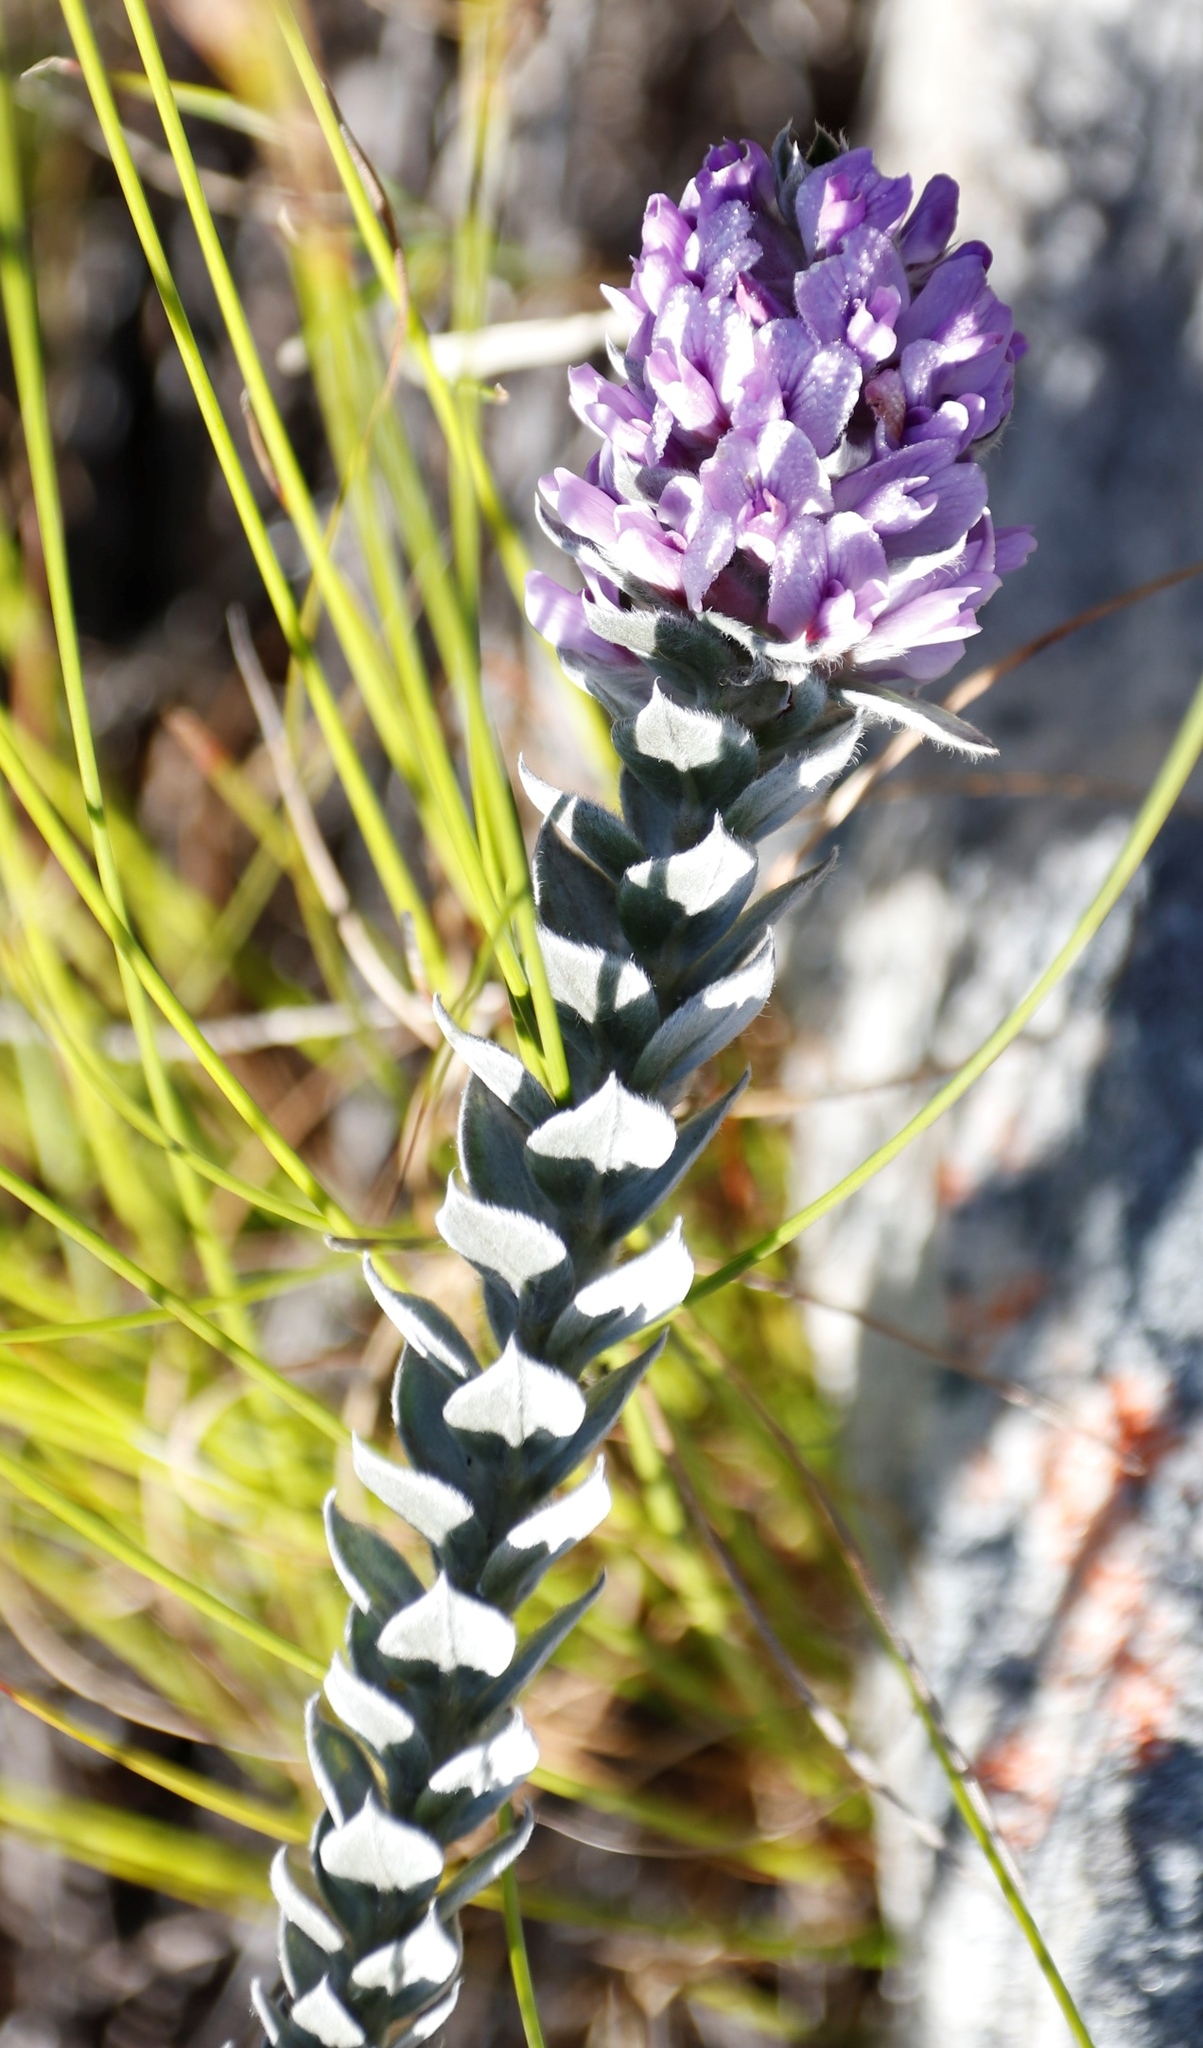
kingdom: Plantae
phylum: Tracheophyta
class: Magnoliopsida
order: Fabales
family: Fabaceae
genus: Amphithalea
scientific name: Amphithalea imbricata
